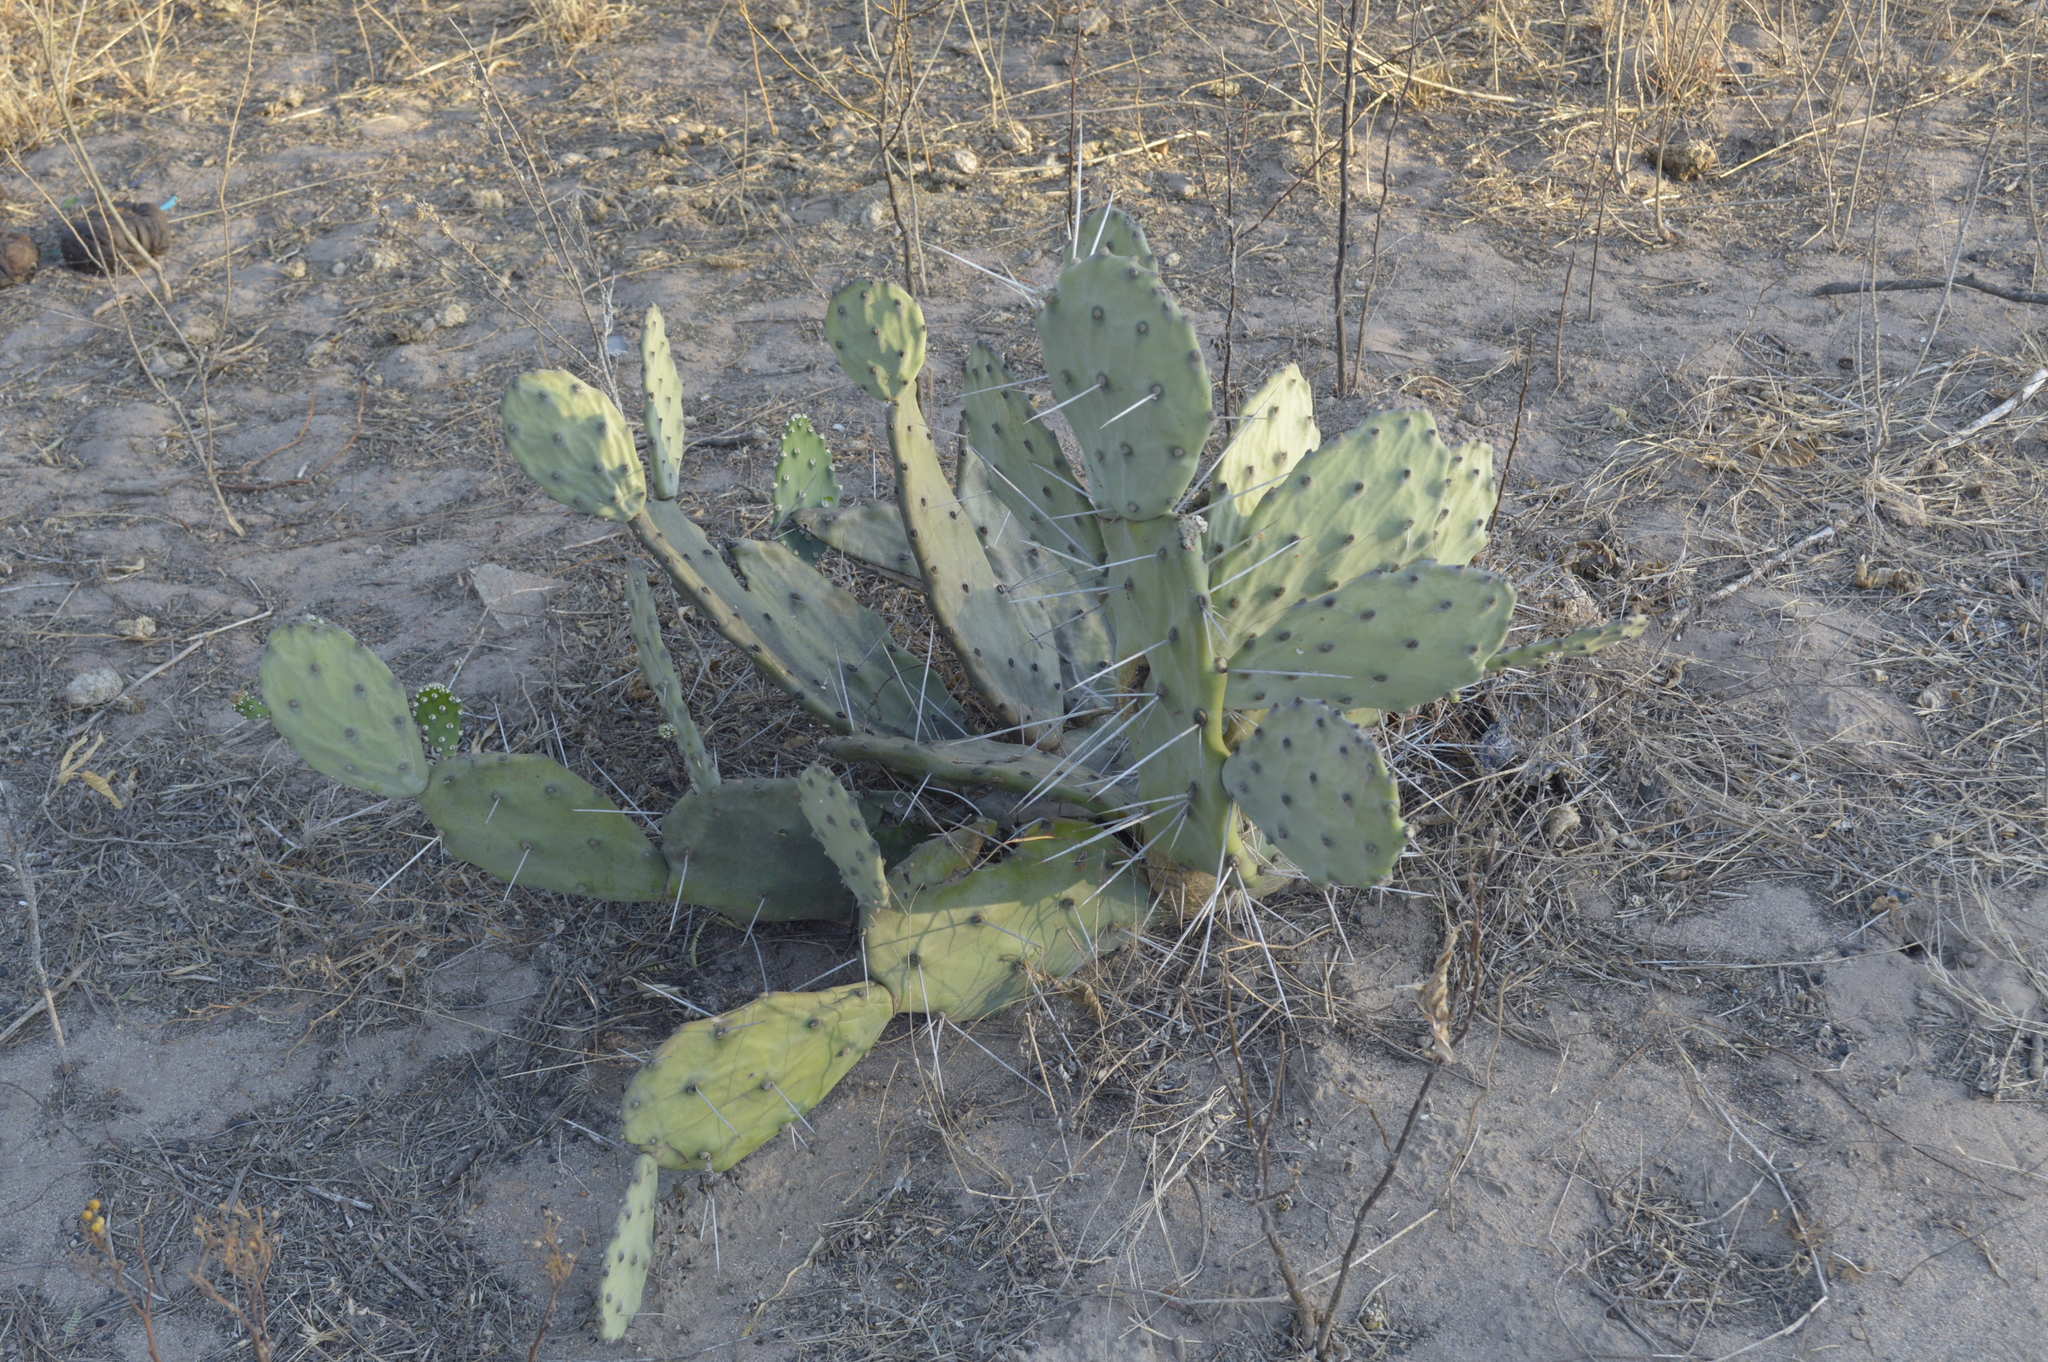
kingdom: Plantae
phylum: Tracheophyta
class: Magnoliopsida
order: Caryophyllales
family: Cactaceae
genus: Opuntia
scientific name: Opuntia quimilo
